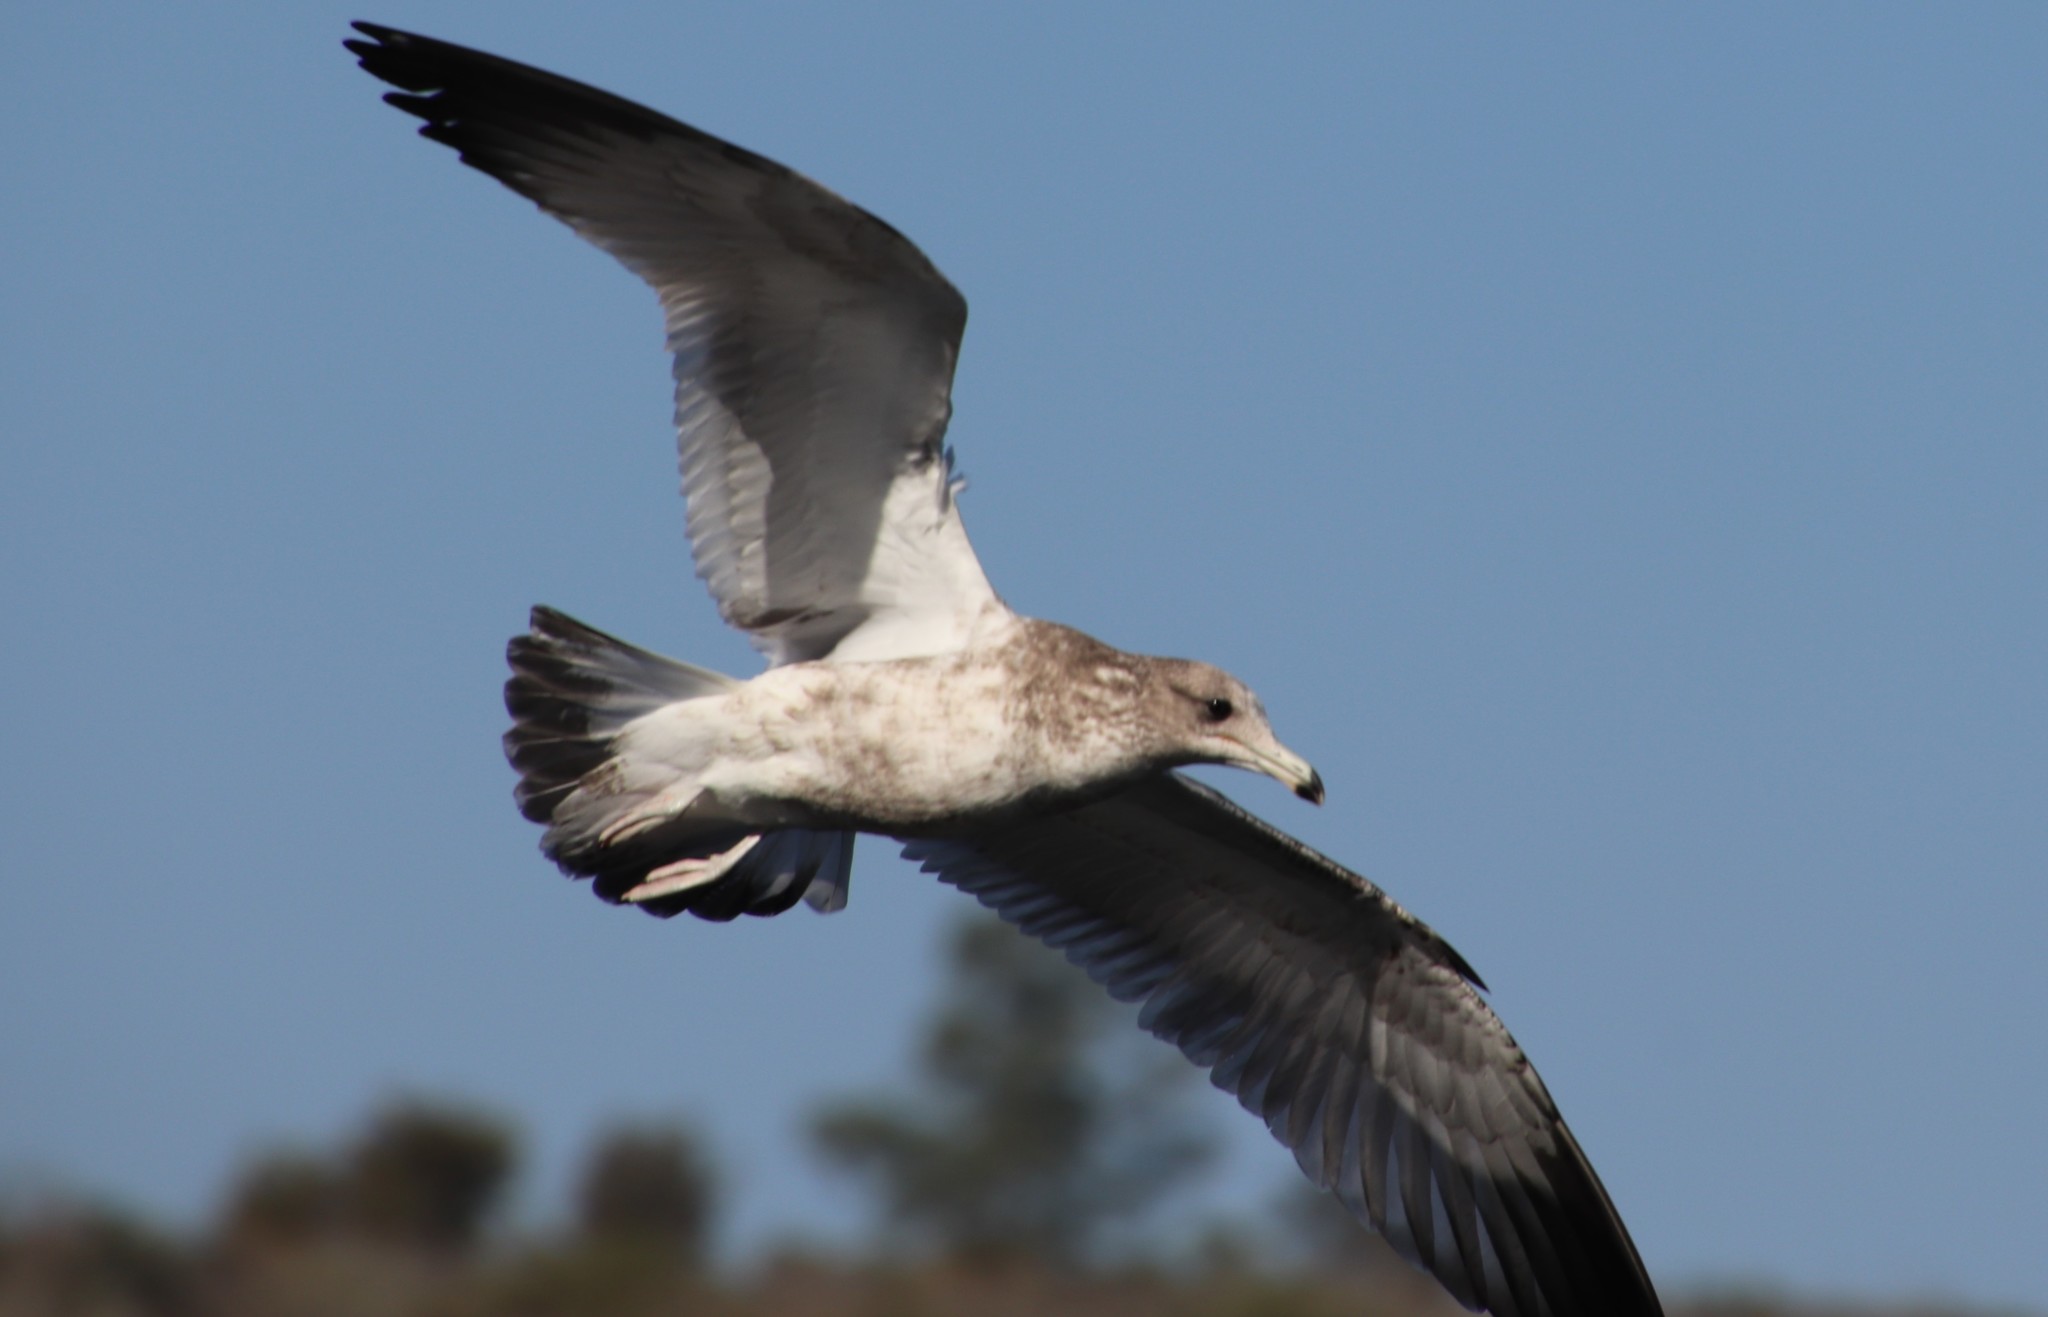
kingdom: Animalia
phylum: Chordata
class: Aves
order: Charadriiformes
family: Laridae
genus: Larus
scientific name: Larus californicus
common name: California gull
